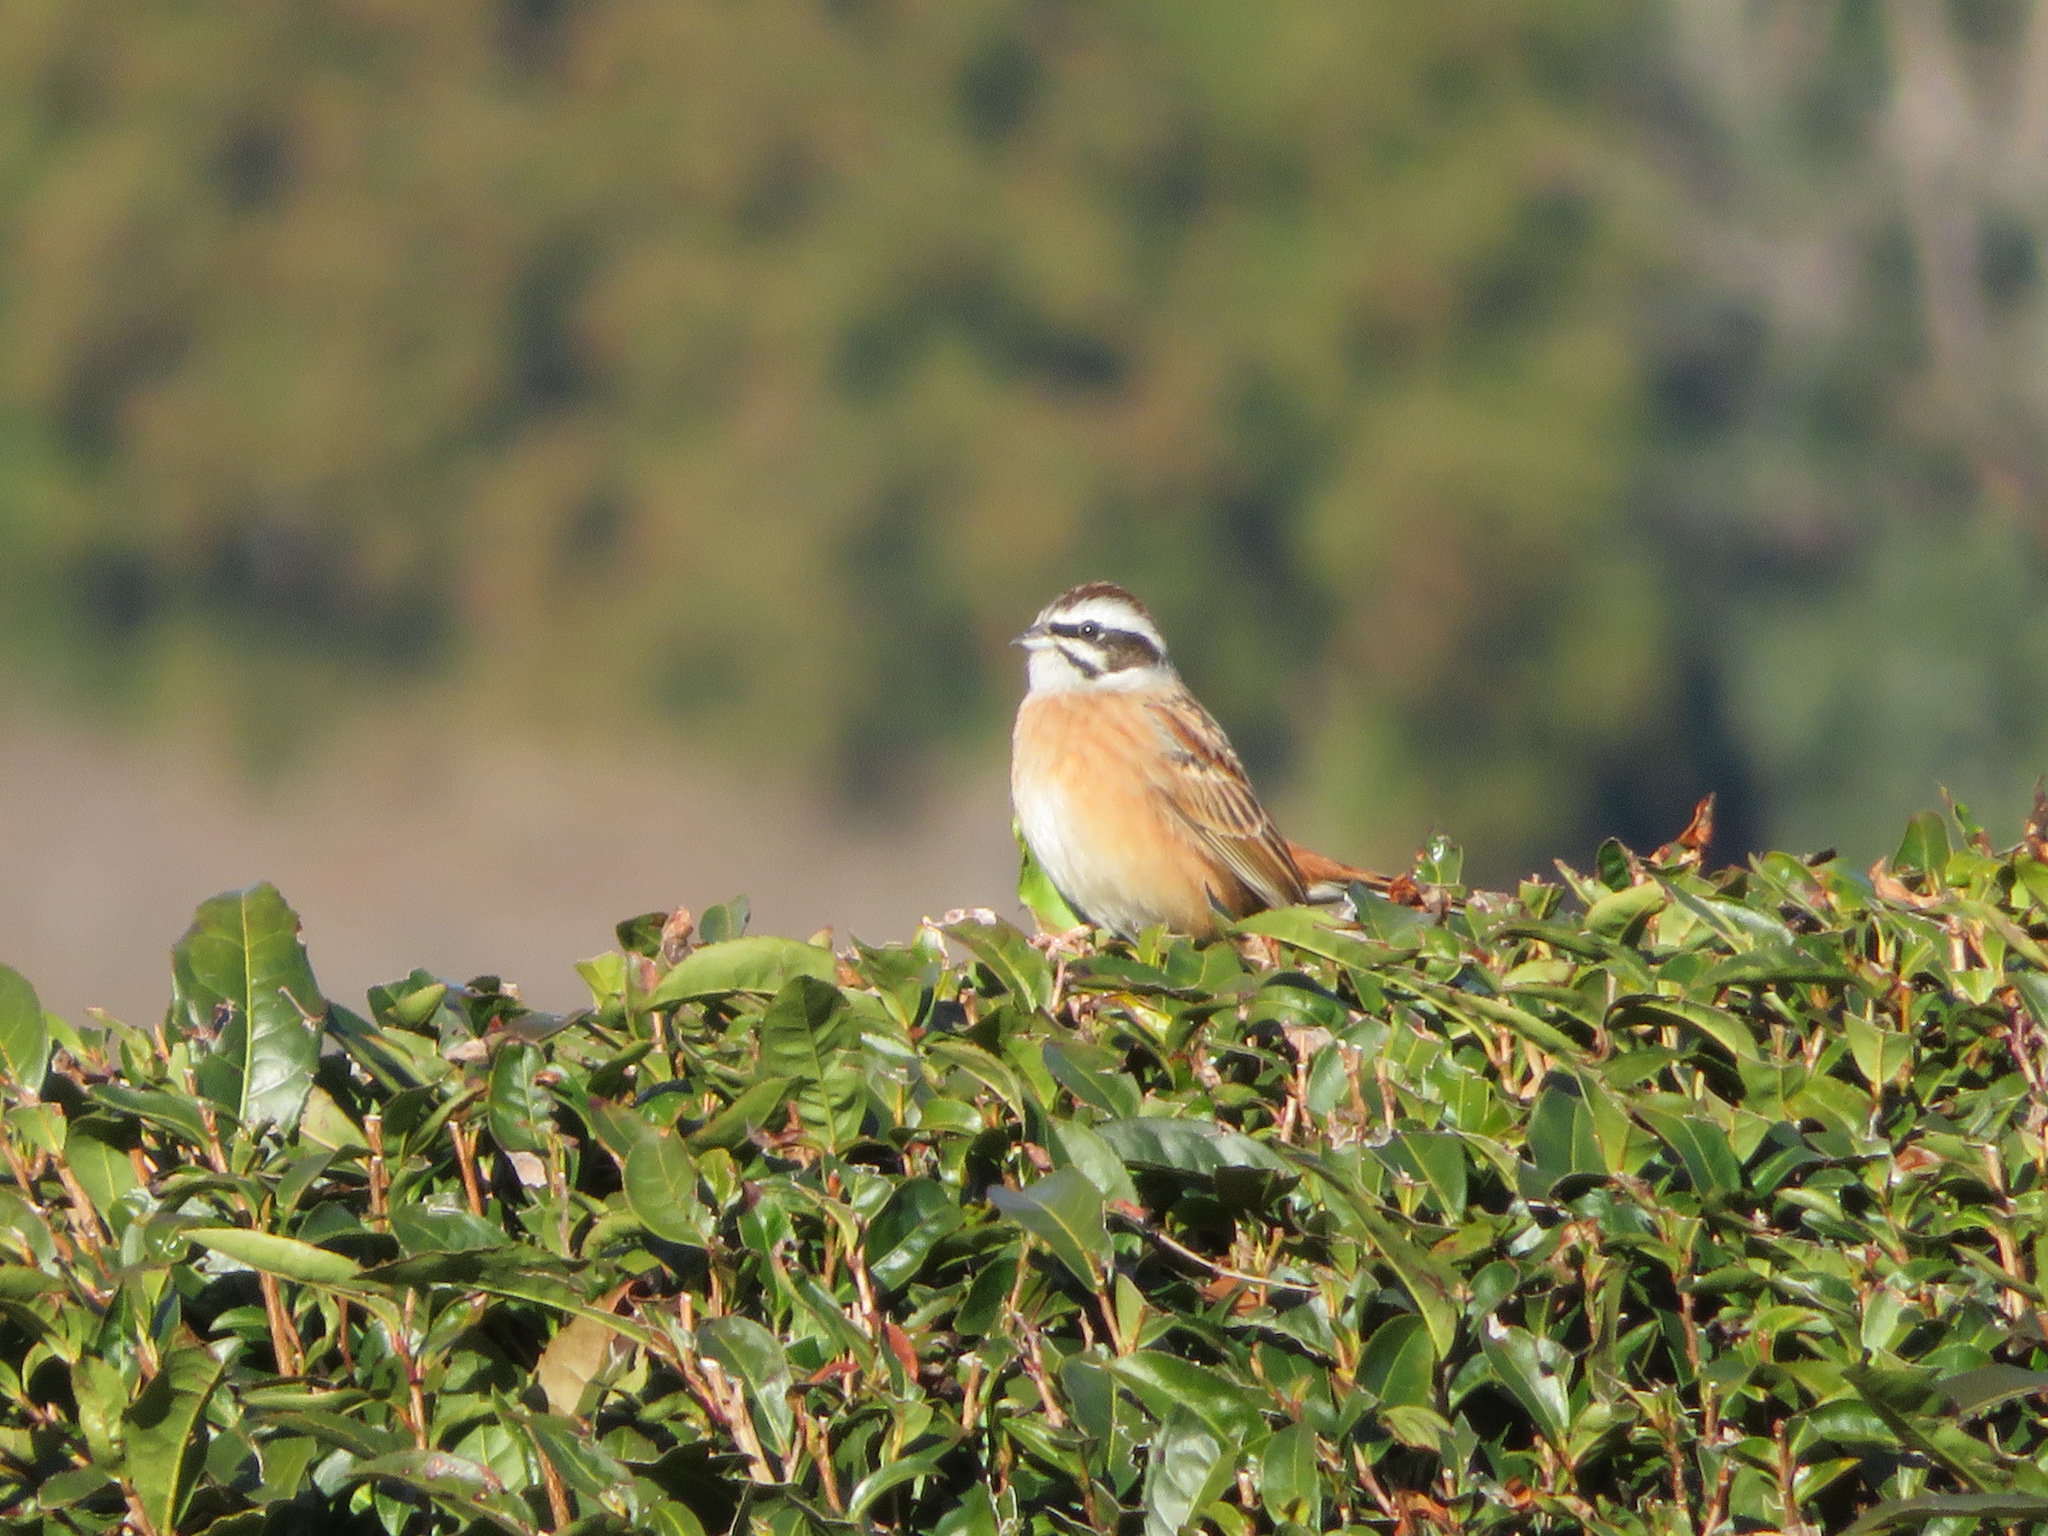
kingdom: Animalia
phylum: Chordata
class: Aves
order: Passeriformes
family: Emberizidae
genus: Emberiza
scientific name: Emberiza cioides
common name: Meadow bunting
